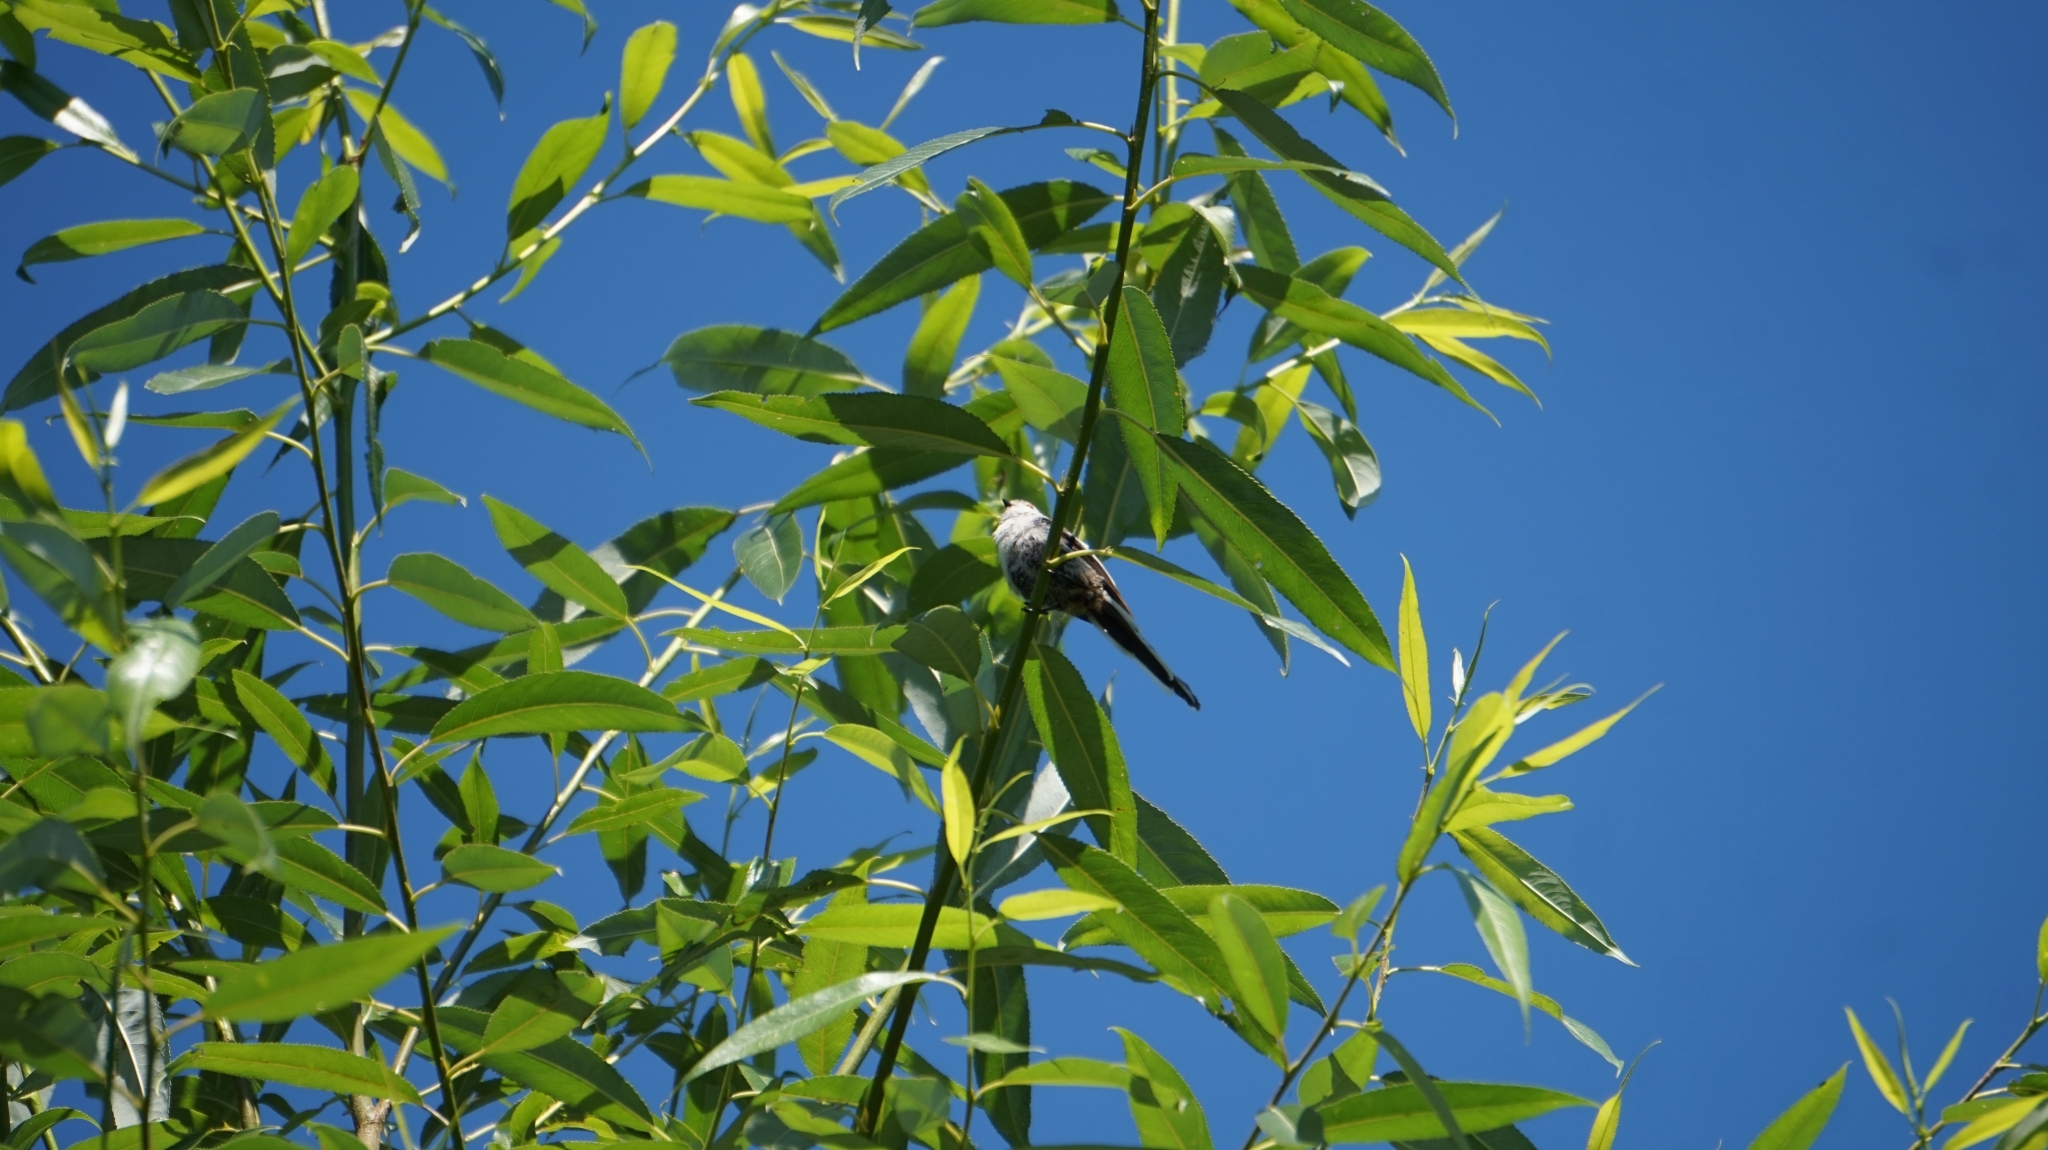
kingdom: Animalia
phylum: Chordata
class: Aves
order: Passeriformes
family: Aegithalidae
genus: Aegithalos
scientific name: Aegithalos caudatus
